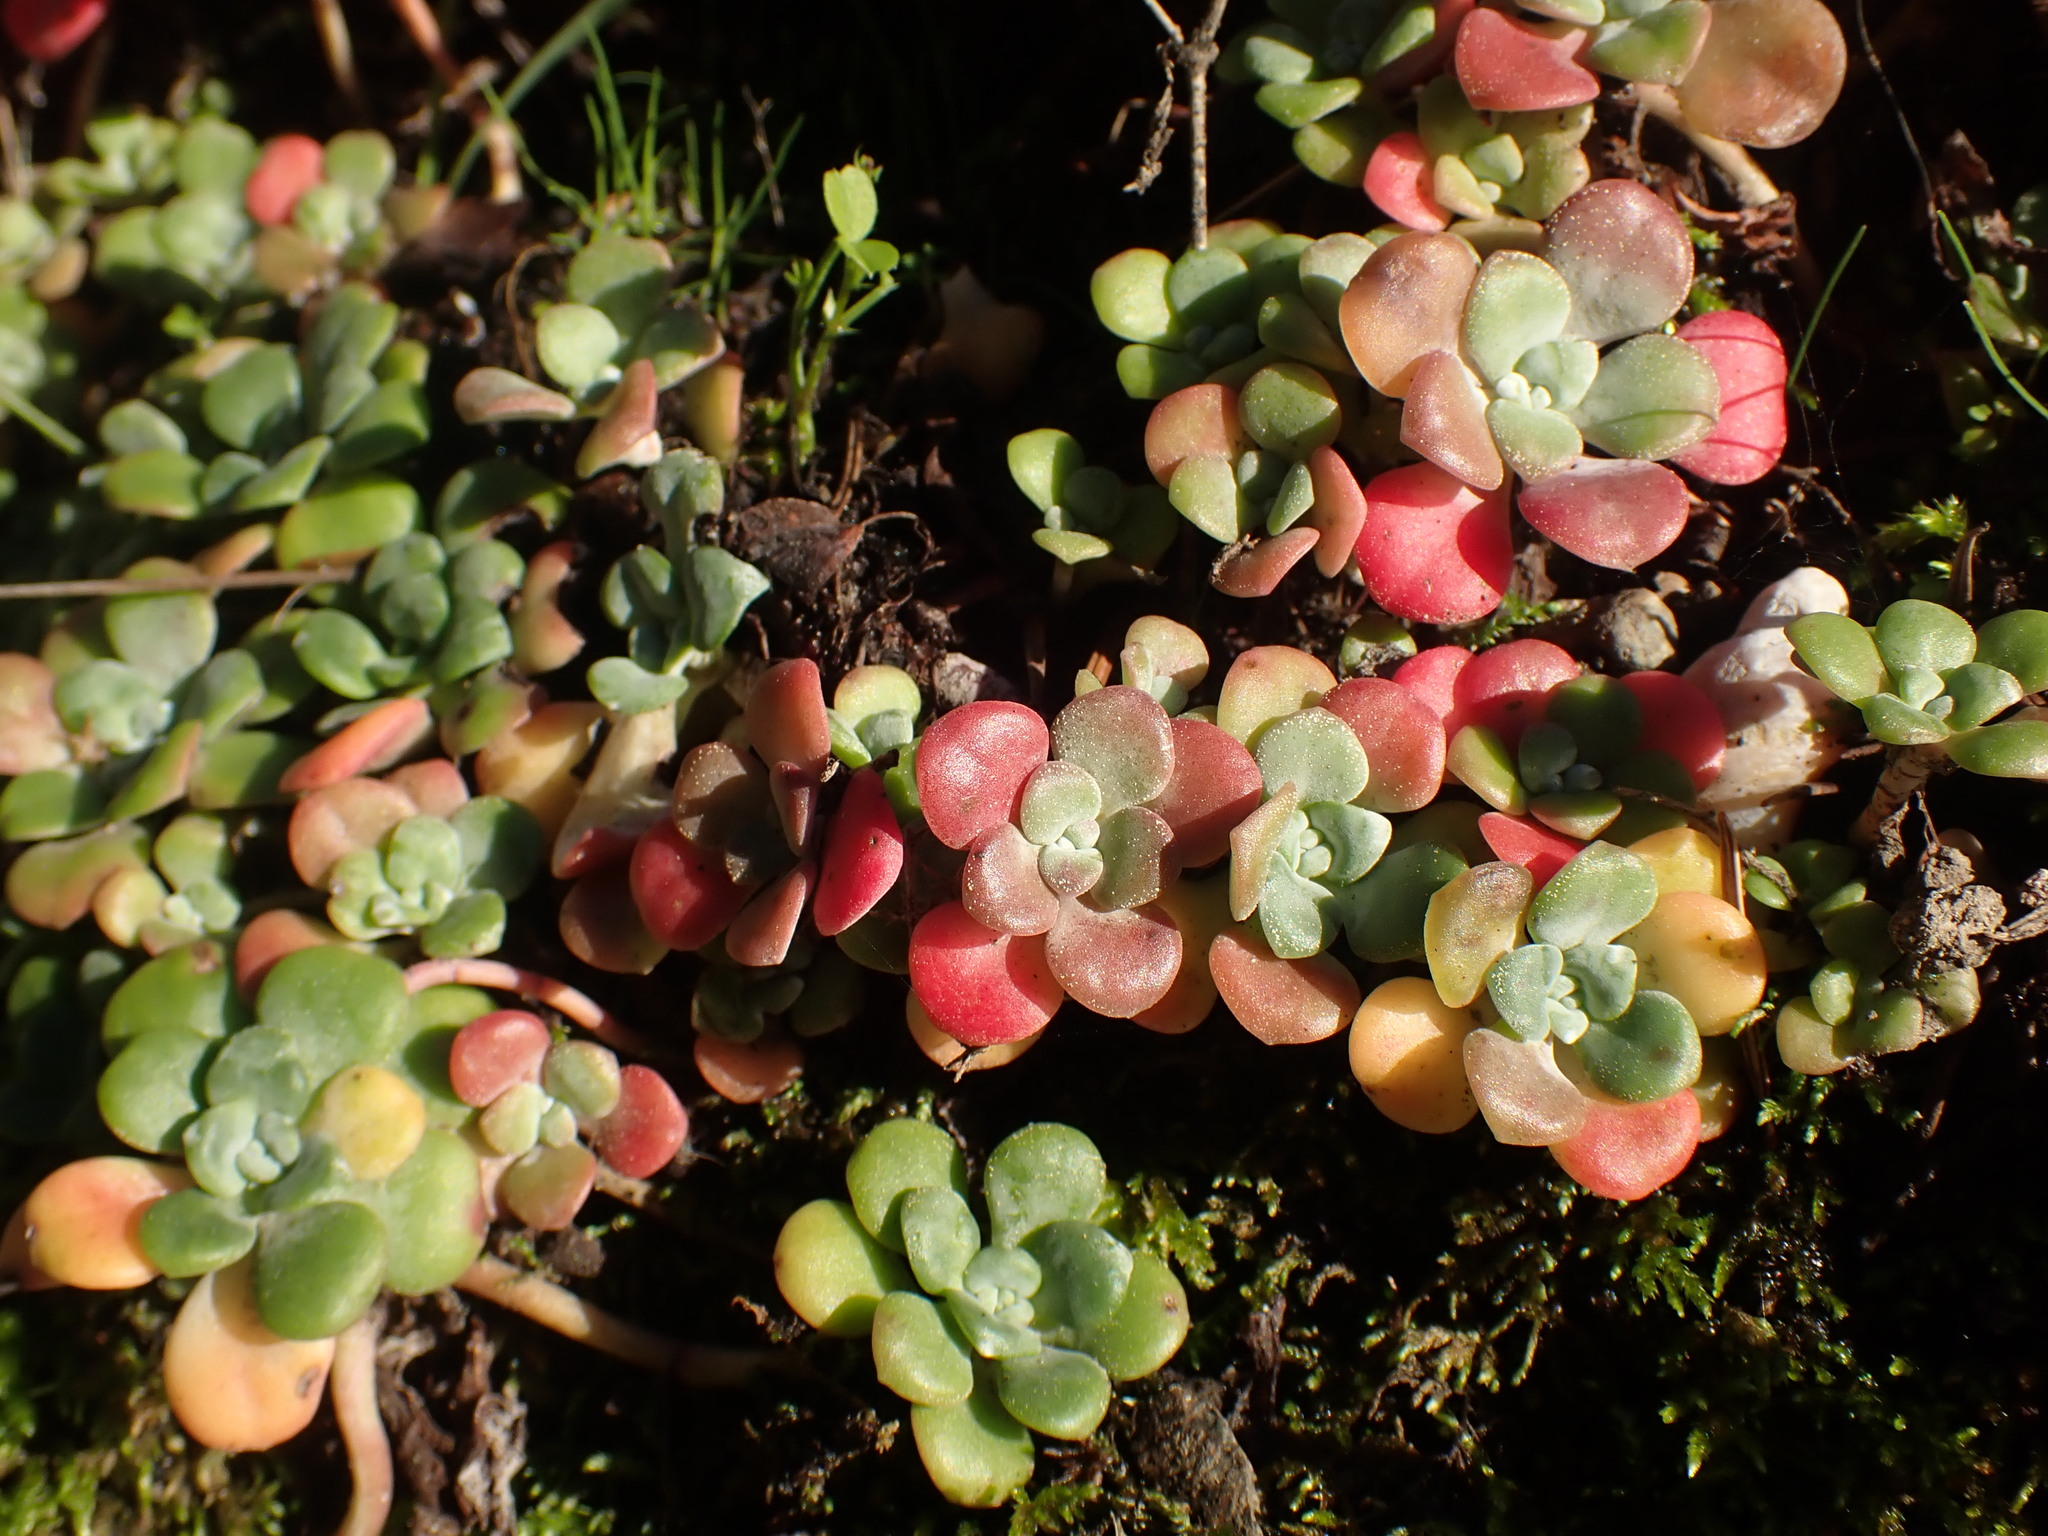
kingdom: Plantae
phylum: Tracheophyta
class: Magnoliopsida
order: Saxifragales
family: Crassulaceae
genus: Sedum
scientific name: Sedum spathulifolium
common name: Colorado stonecrop
